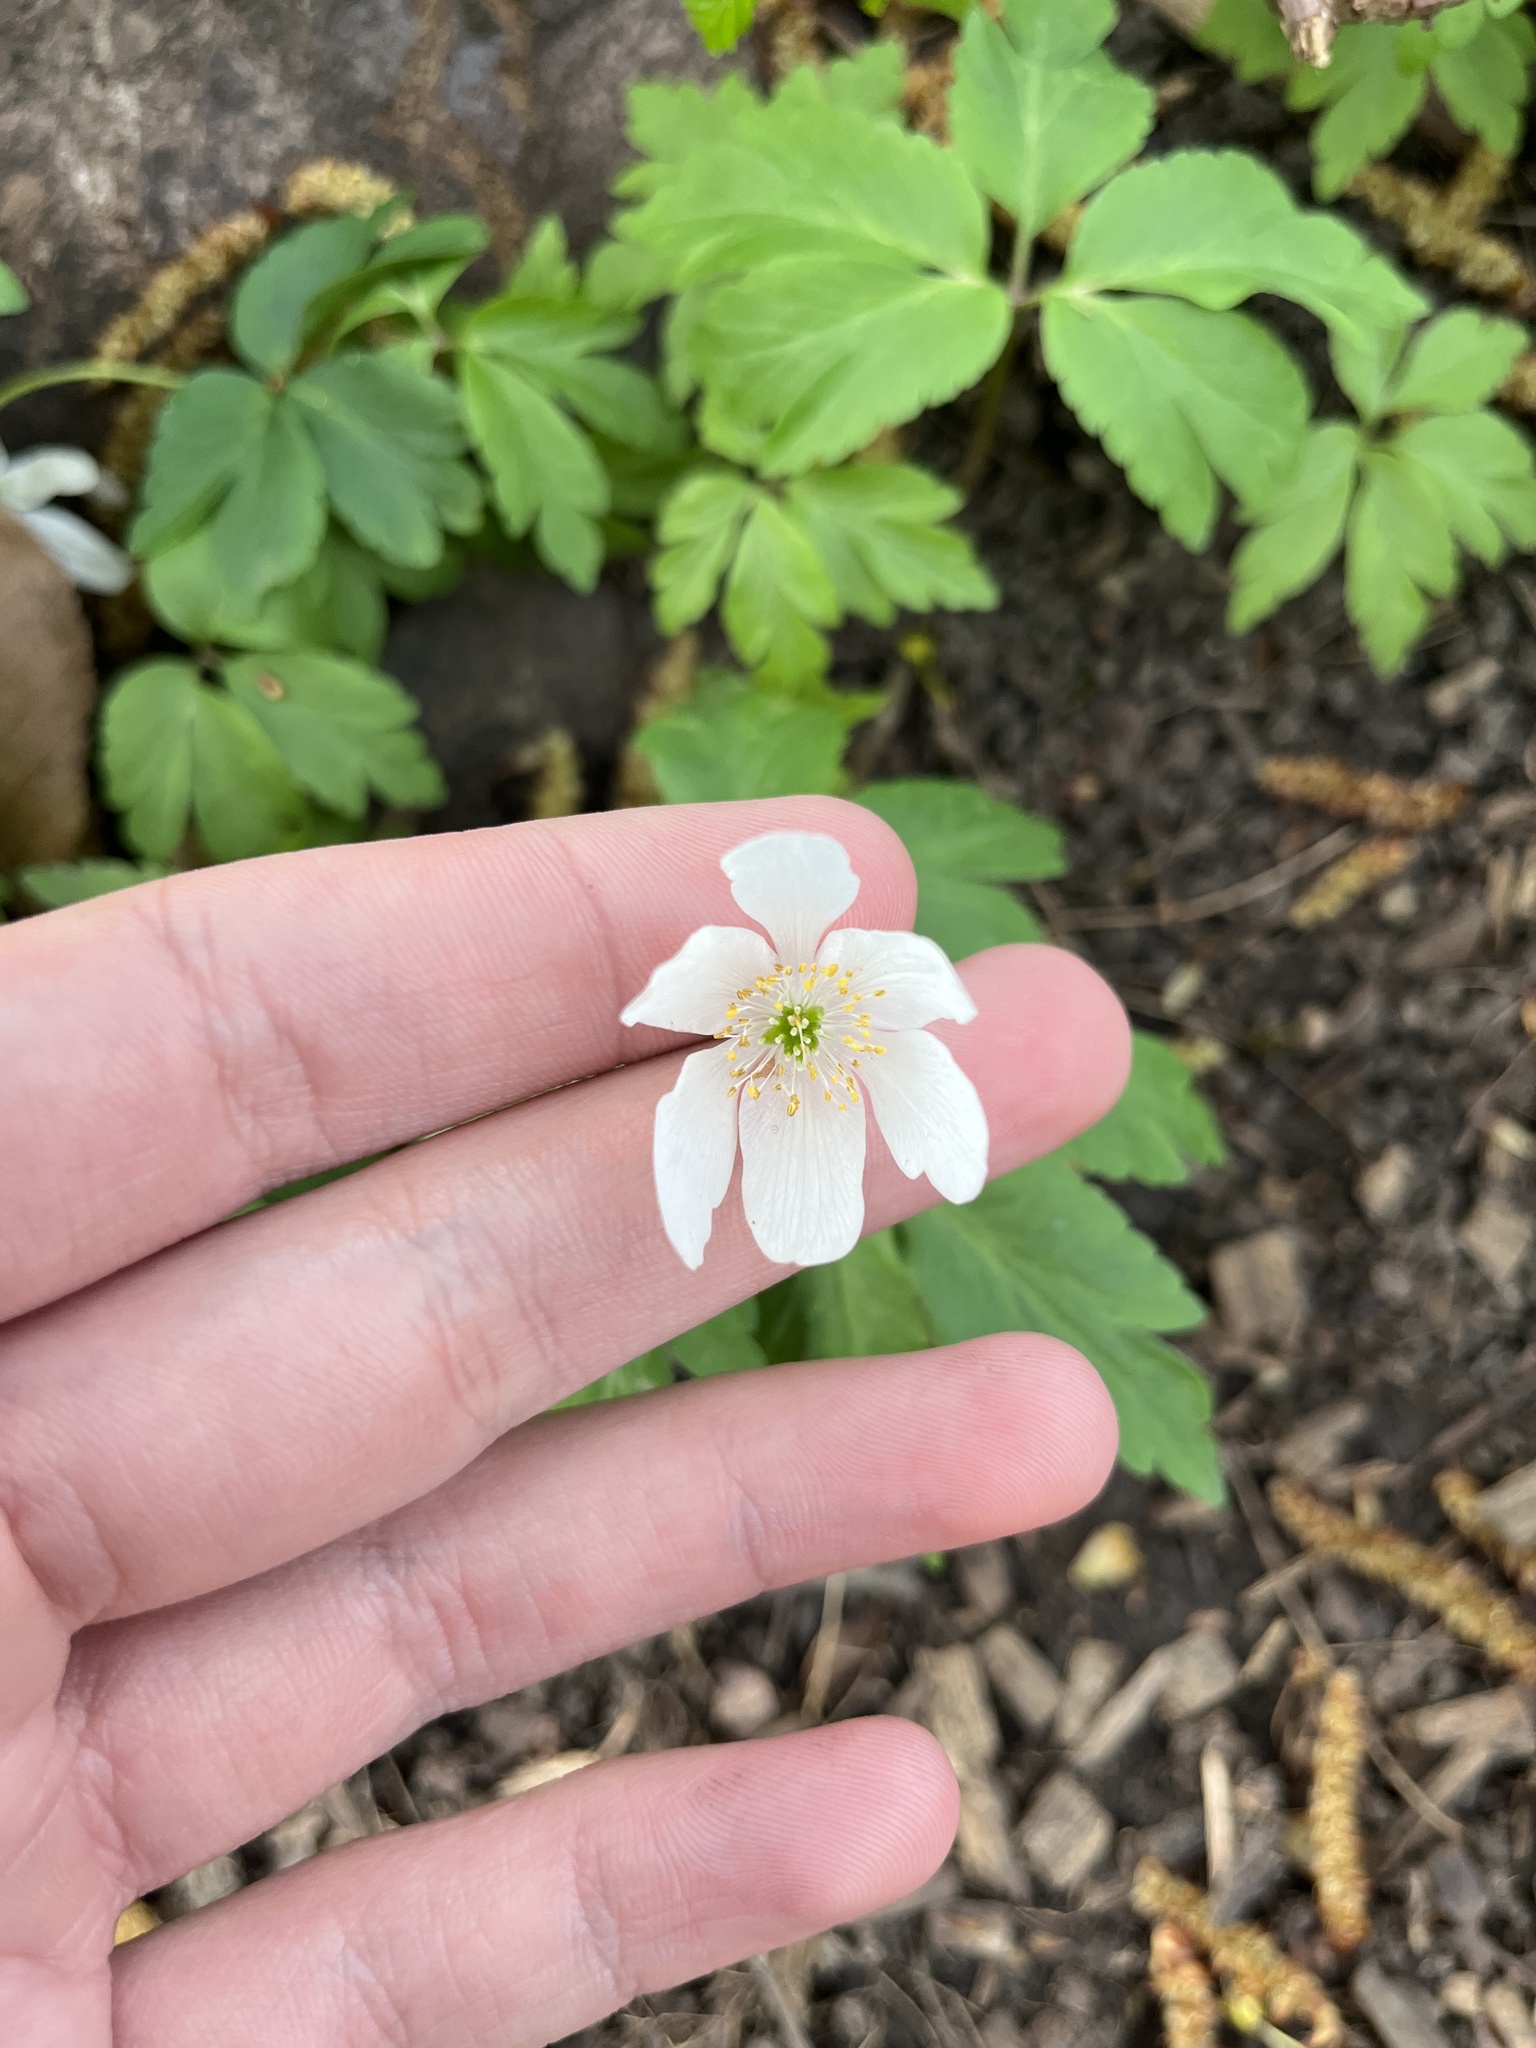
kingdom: Plantae
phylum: Tracheophyta
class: Magnoliopsida
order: Ranunculales
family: Ranunculaceae
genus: Anemone
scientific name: Anemone nemorosa
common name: Wood anemone
